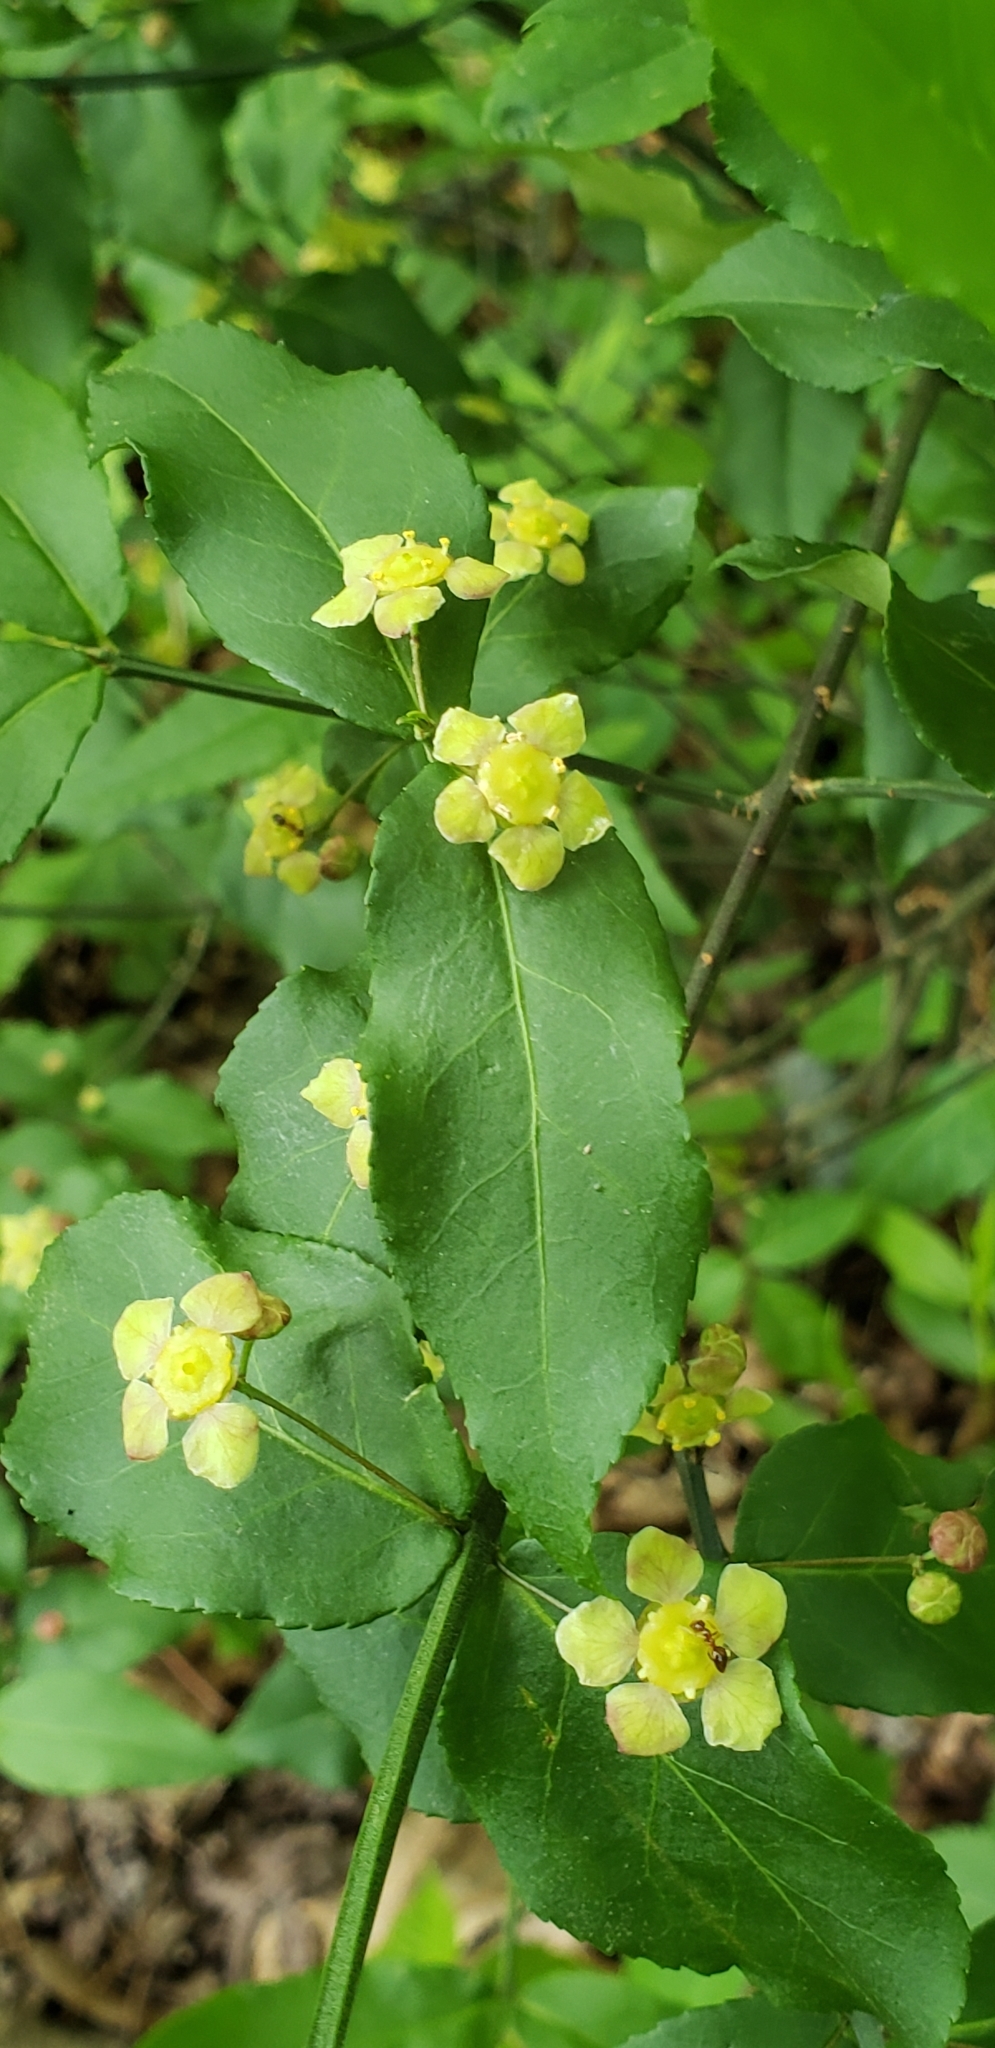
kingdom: Plantae
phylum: Tracheophyta
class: Magnoliopsida
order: Celastrales
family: Celastraceae
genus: Euonymus
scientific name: Euonymus americanus
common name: Bursting-heart
